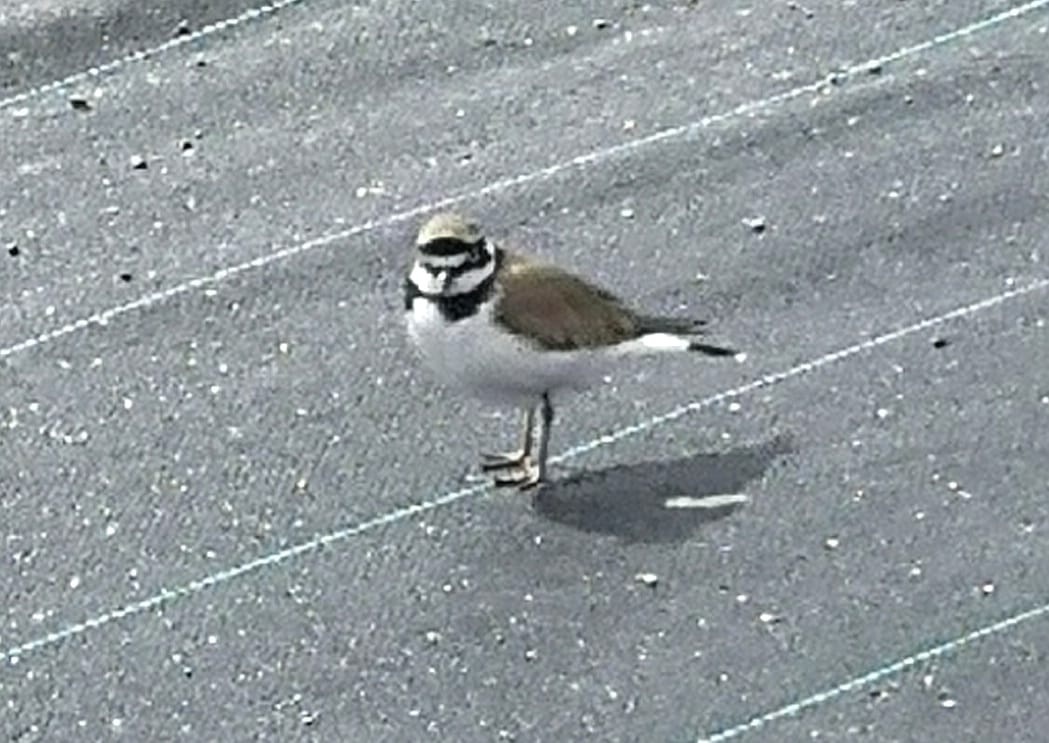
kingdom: Animalia
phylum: Chordata
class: Aves
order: Charadriiformes
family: Charadriidae
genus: Charadrius
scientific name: Charadrius dubius
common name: Little ringed plover
